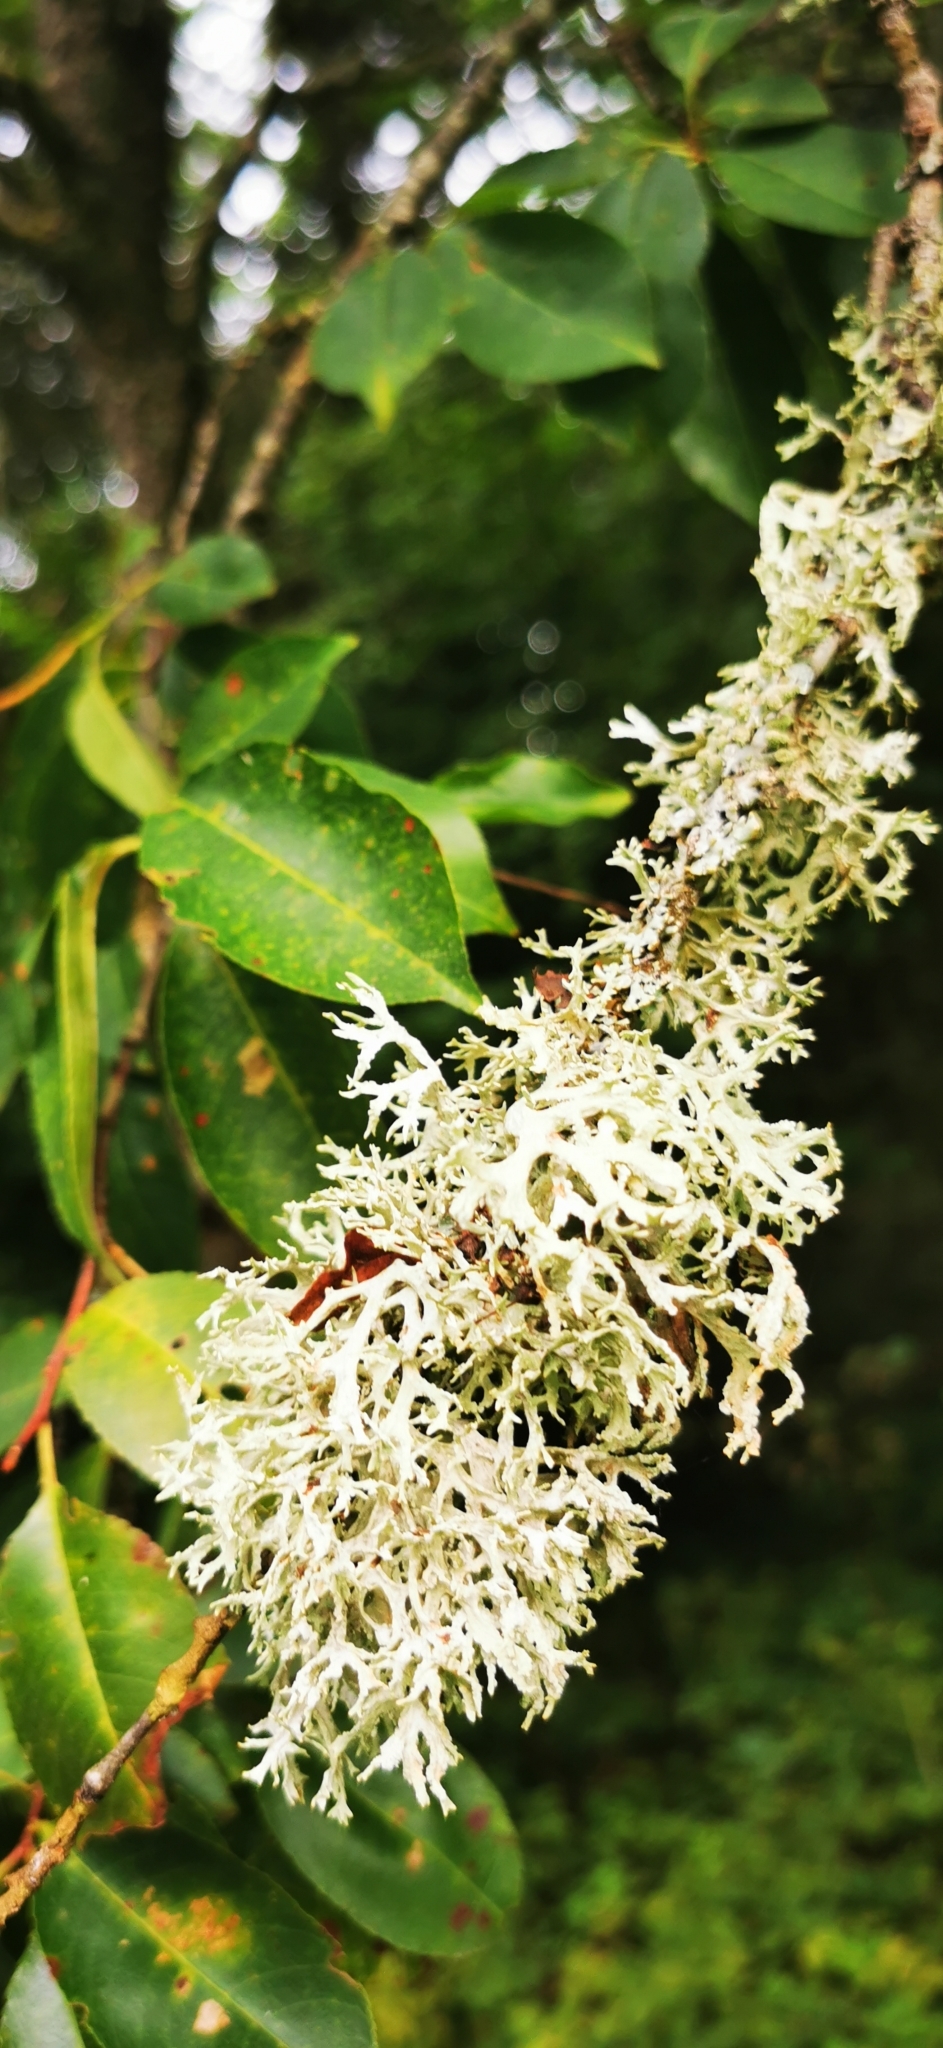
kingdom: Fungi
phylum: Ascomycota
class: Lecanoromycetes
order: Lecanorales
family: Parmeliaceae
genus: Evernia
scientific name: Evernia prunastri
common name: Oak moss
